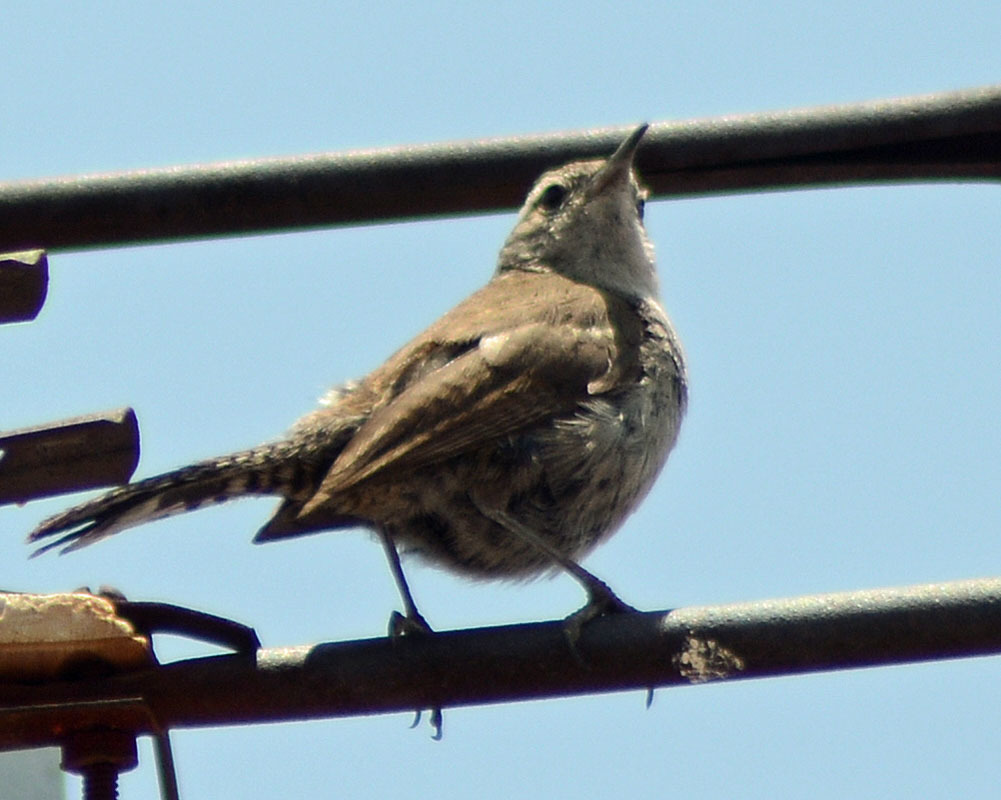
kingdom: Animalia
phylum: Chordata
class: Aves
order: Passeriformes
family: Troglodytidae
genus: Thryomanes
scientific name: Thryomanes bewickii
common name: Bewick's wren
